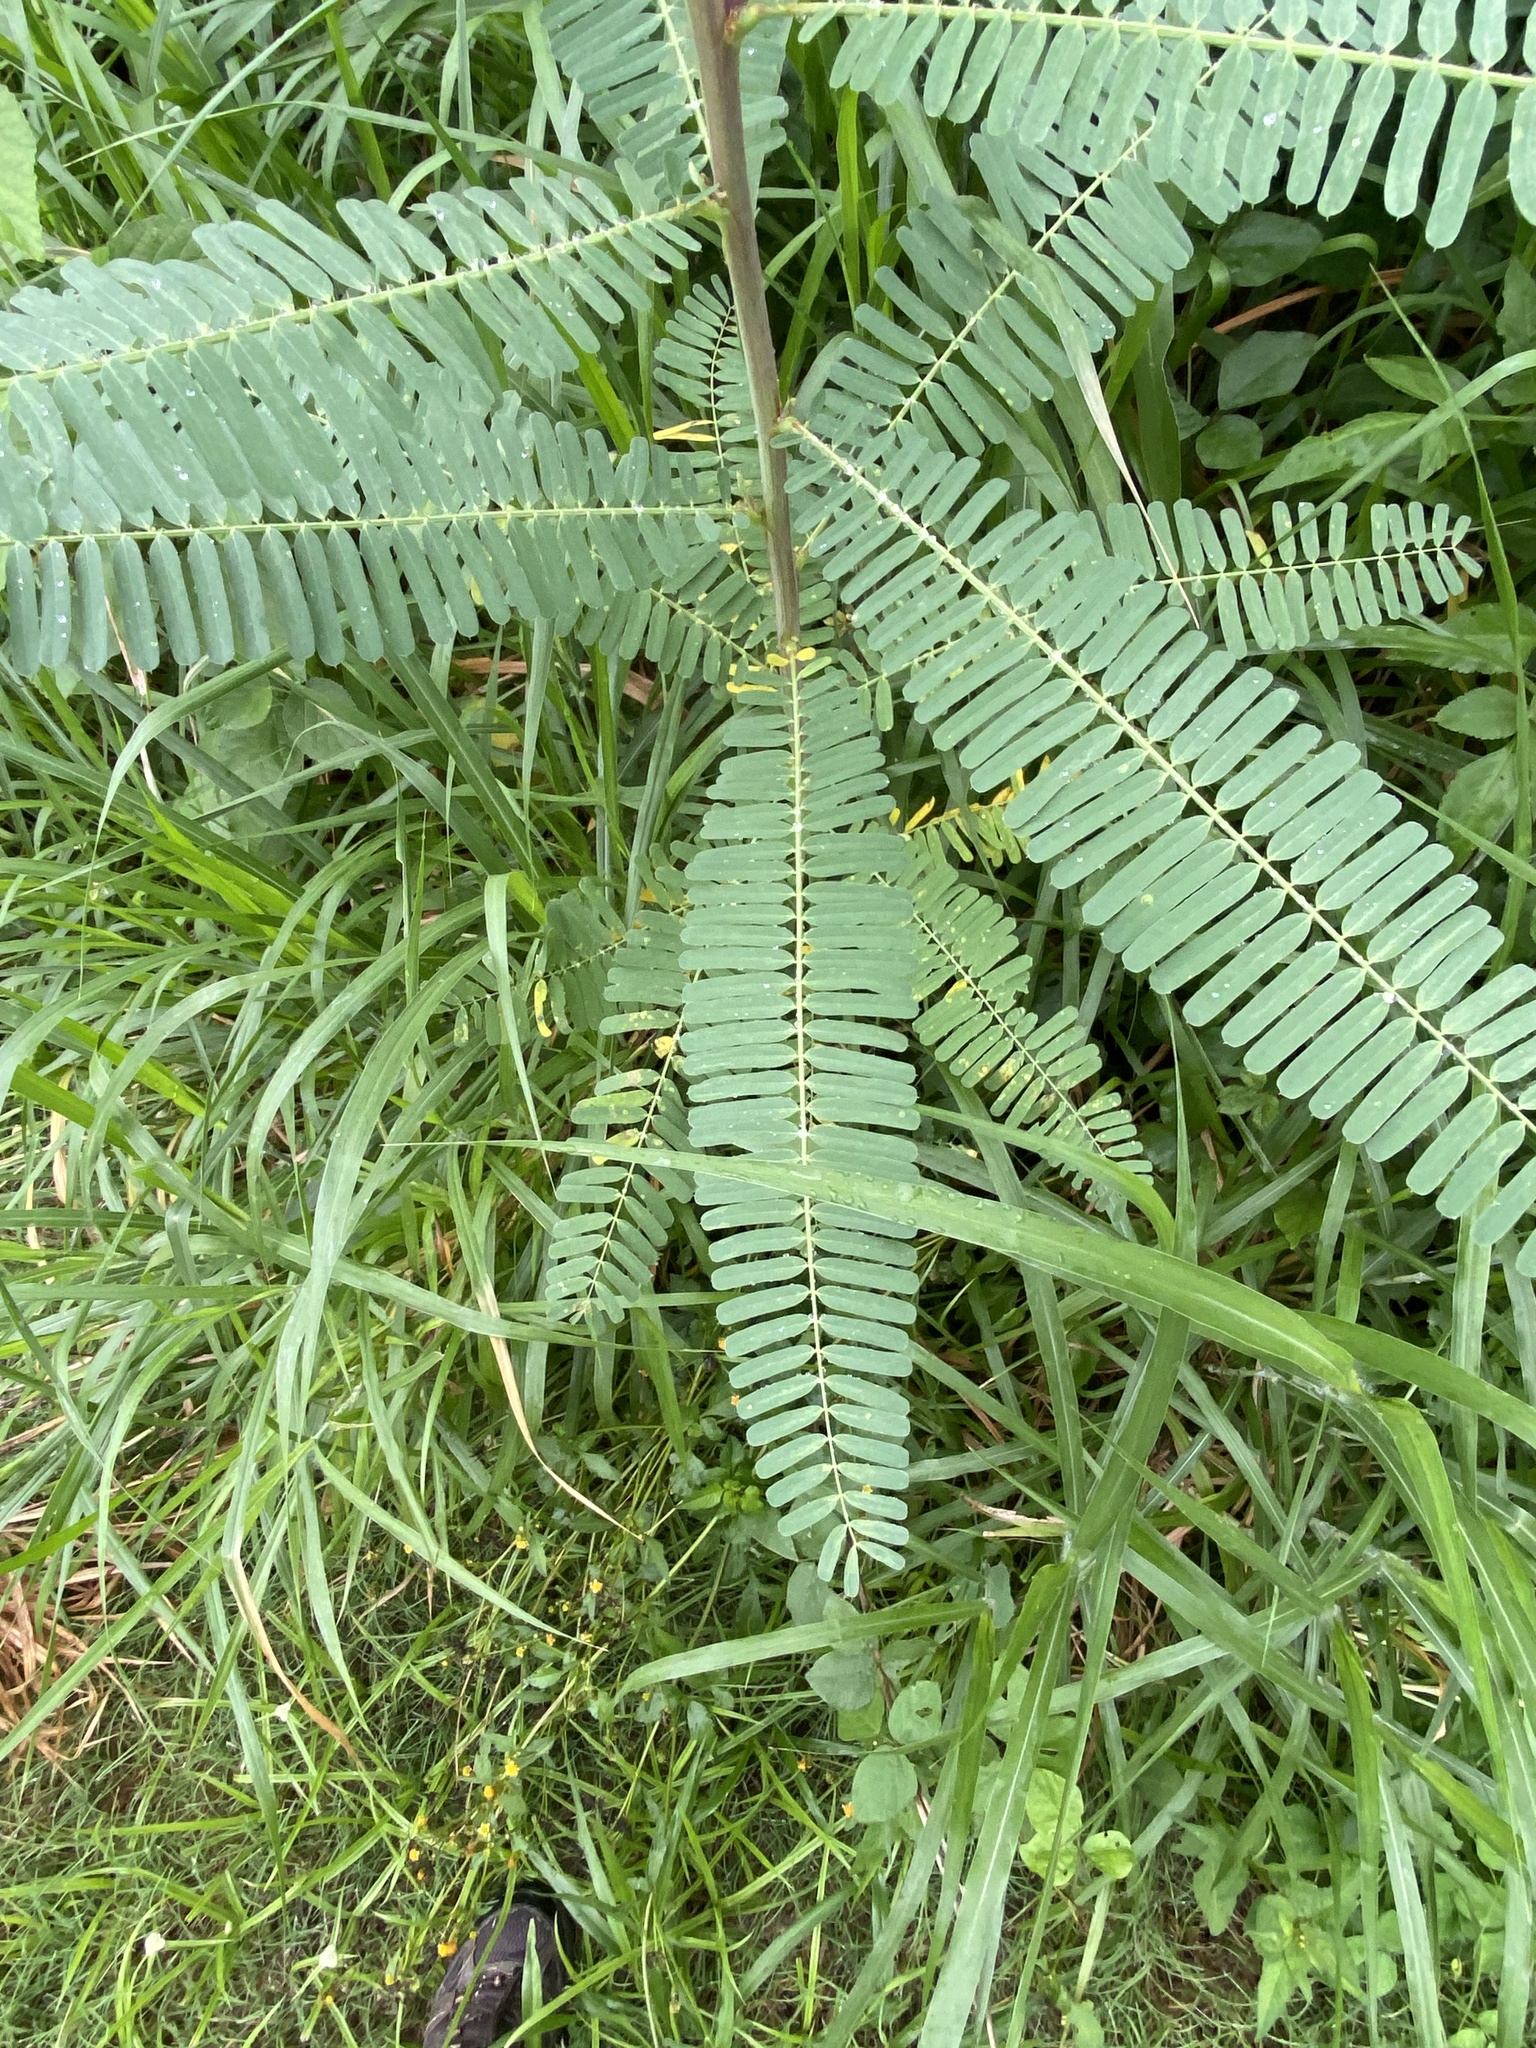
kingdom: Plantae
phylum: Tracheophyta
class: Magnoliopsida
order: Fabales
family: Fabaceae
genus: Sesbania
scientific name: Sesbania cannabina
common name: Canicha
